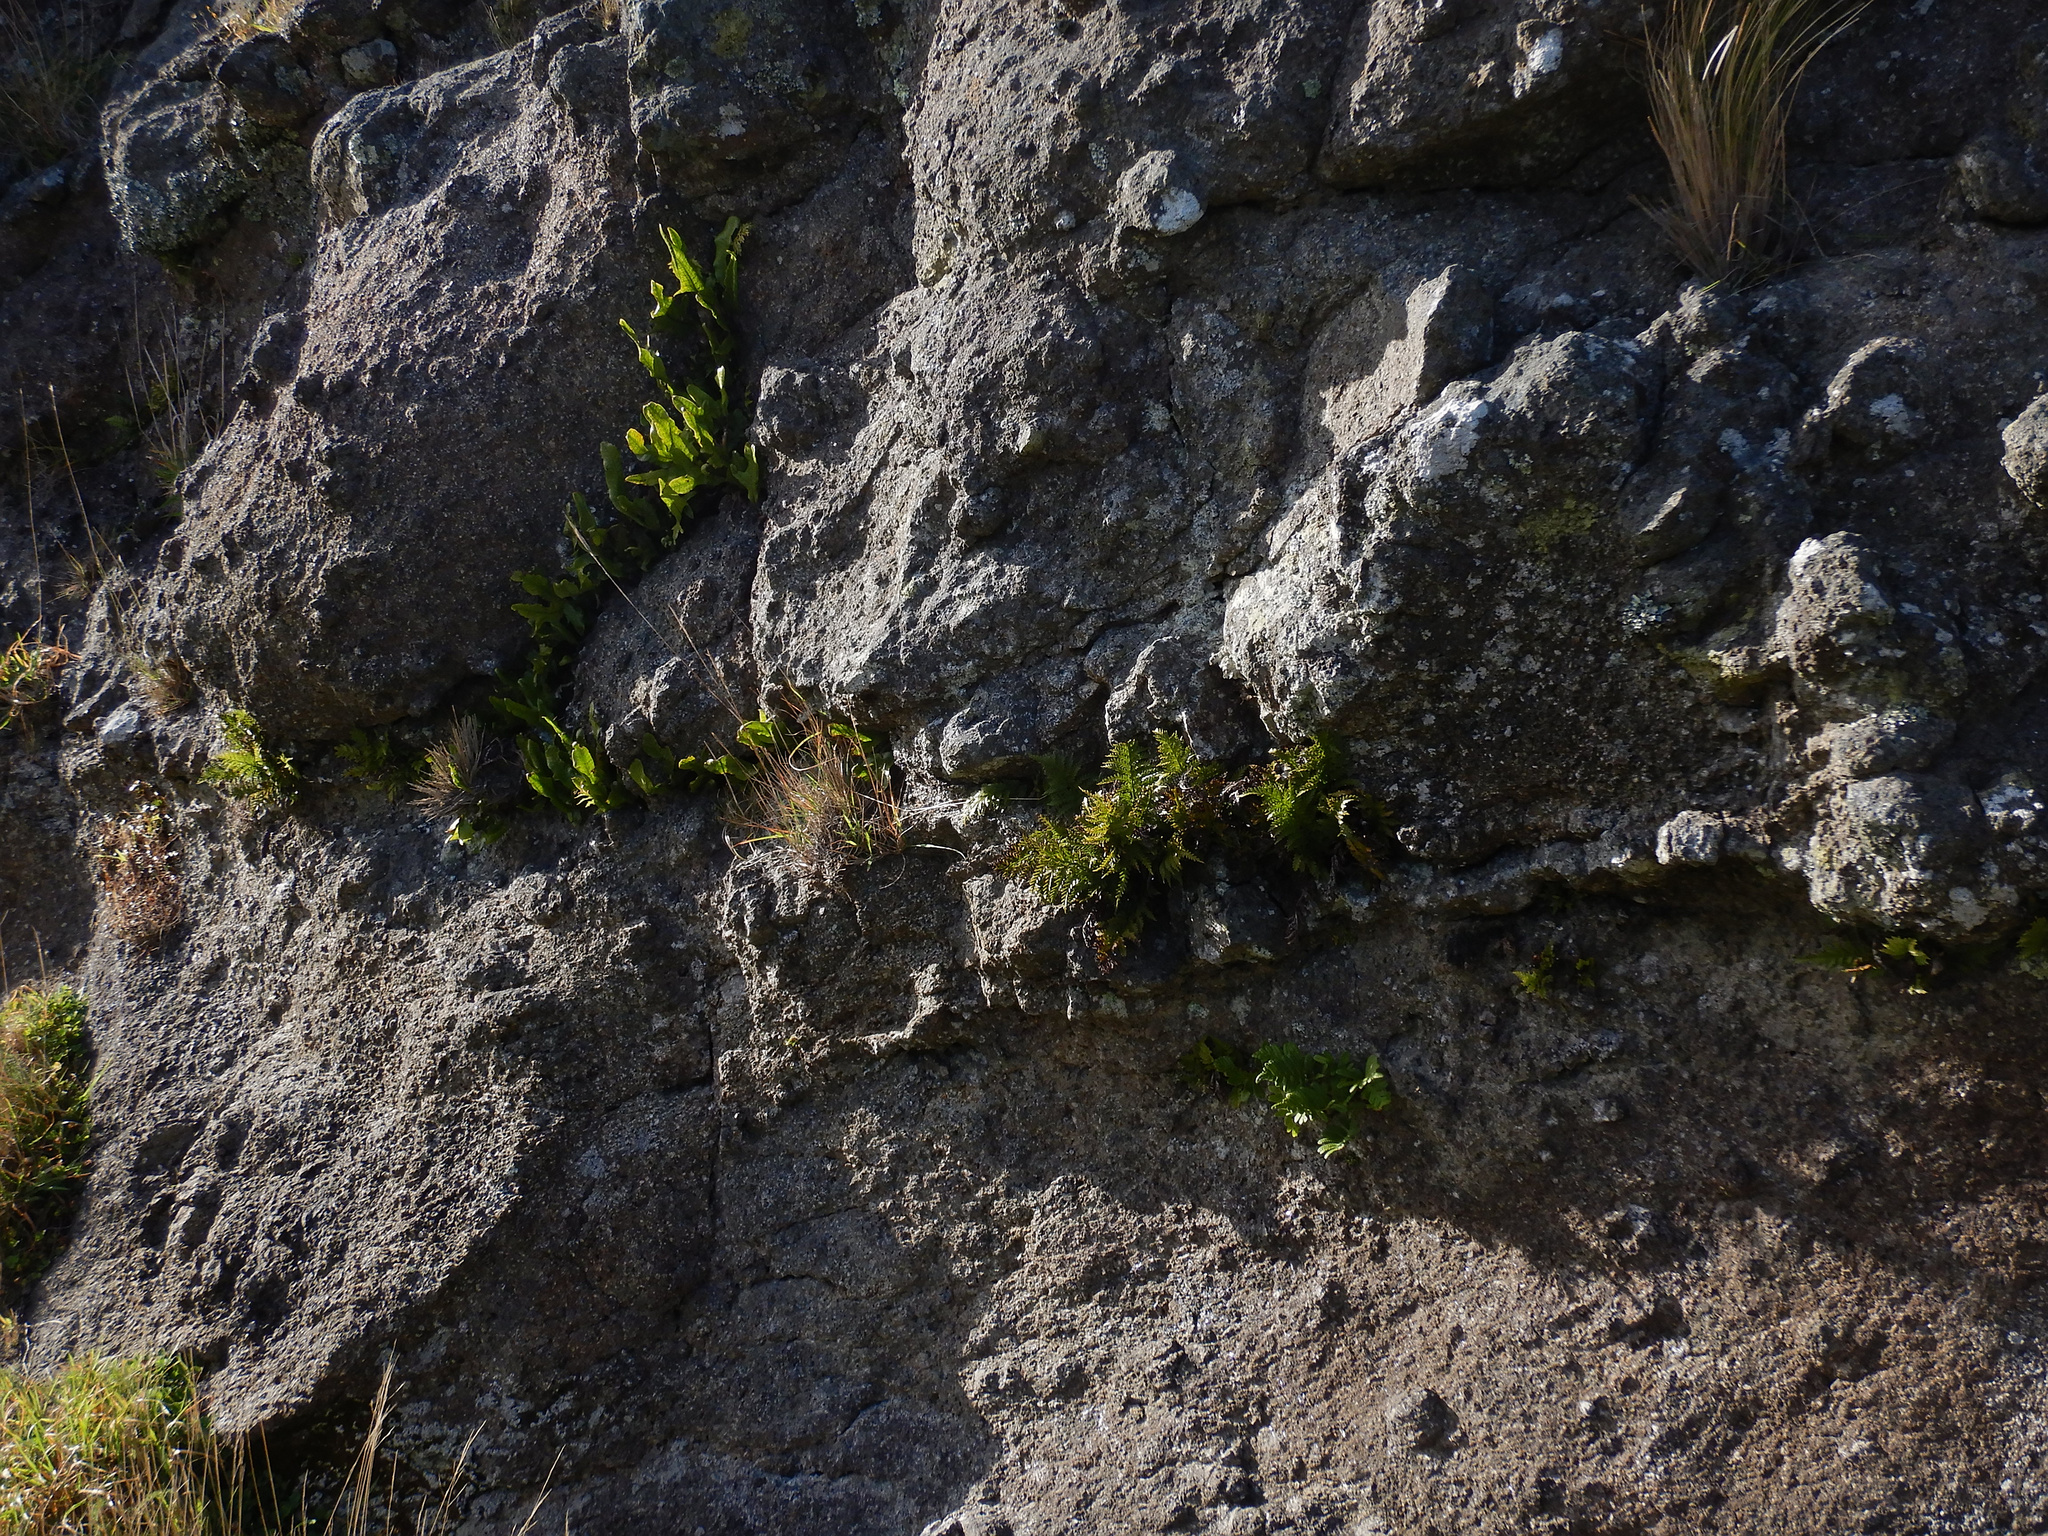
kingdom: Plantae
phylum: Tracheophyta
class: Polypodiopsida
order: Polypodiales
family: Polypodiaceae
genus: Lecanopteris
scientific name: Lecanopteris pustulata
